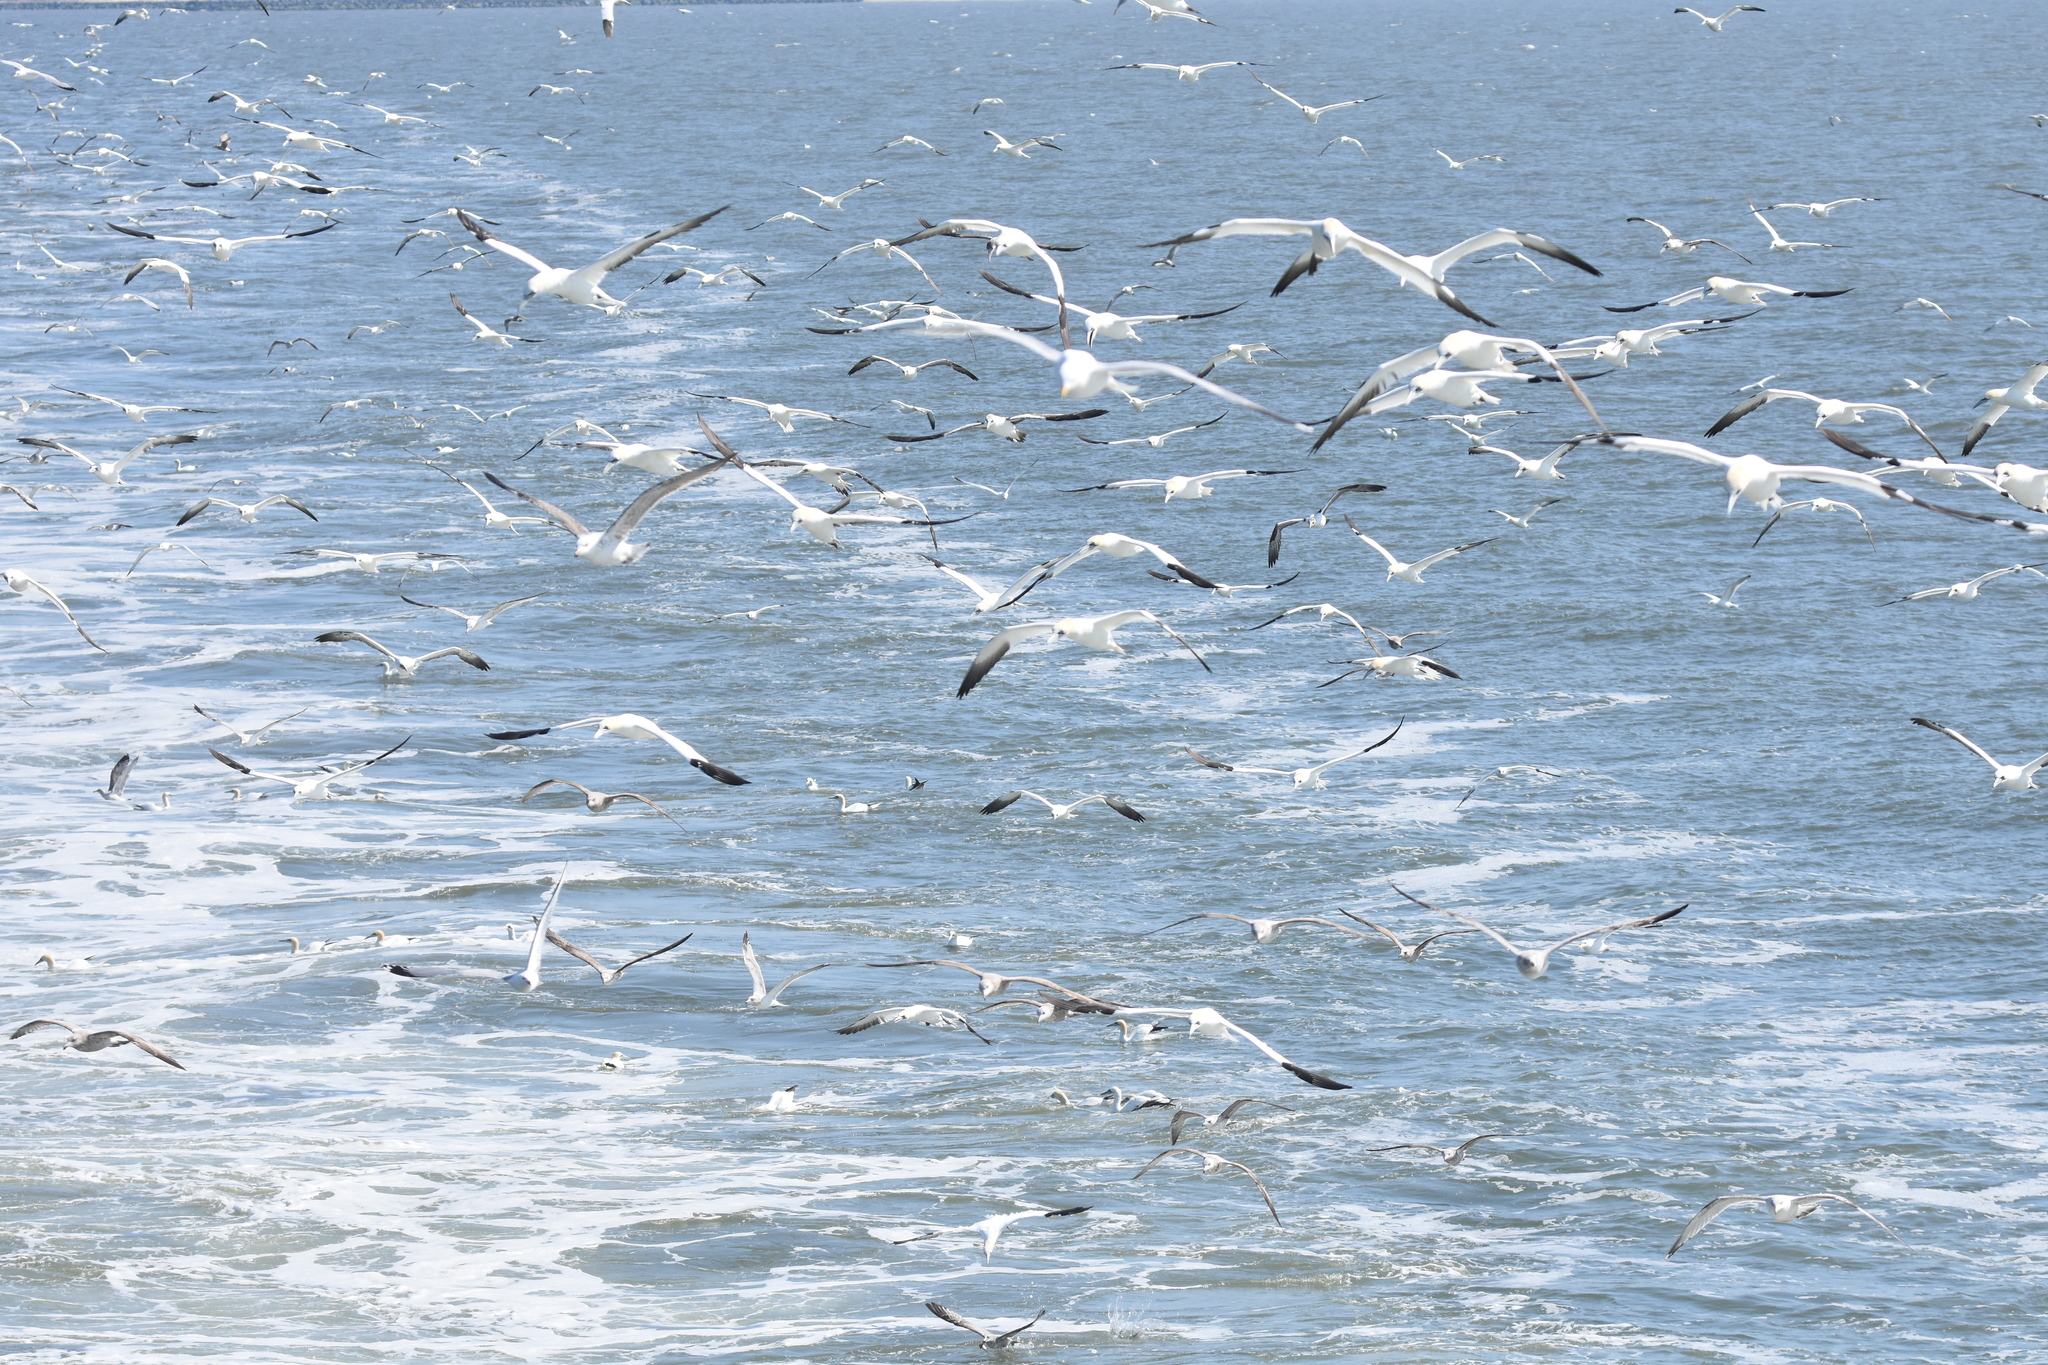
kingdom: Animalia
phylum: Chordata
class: Aves
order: Suliformes
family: Sulidae
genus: Morus
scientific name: Morus bassanus
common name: Northern gannet
